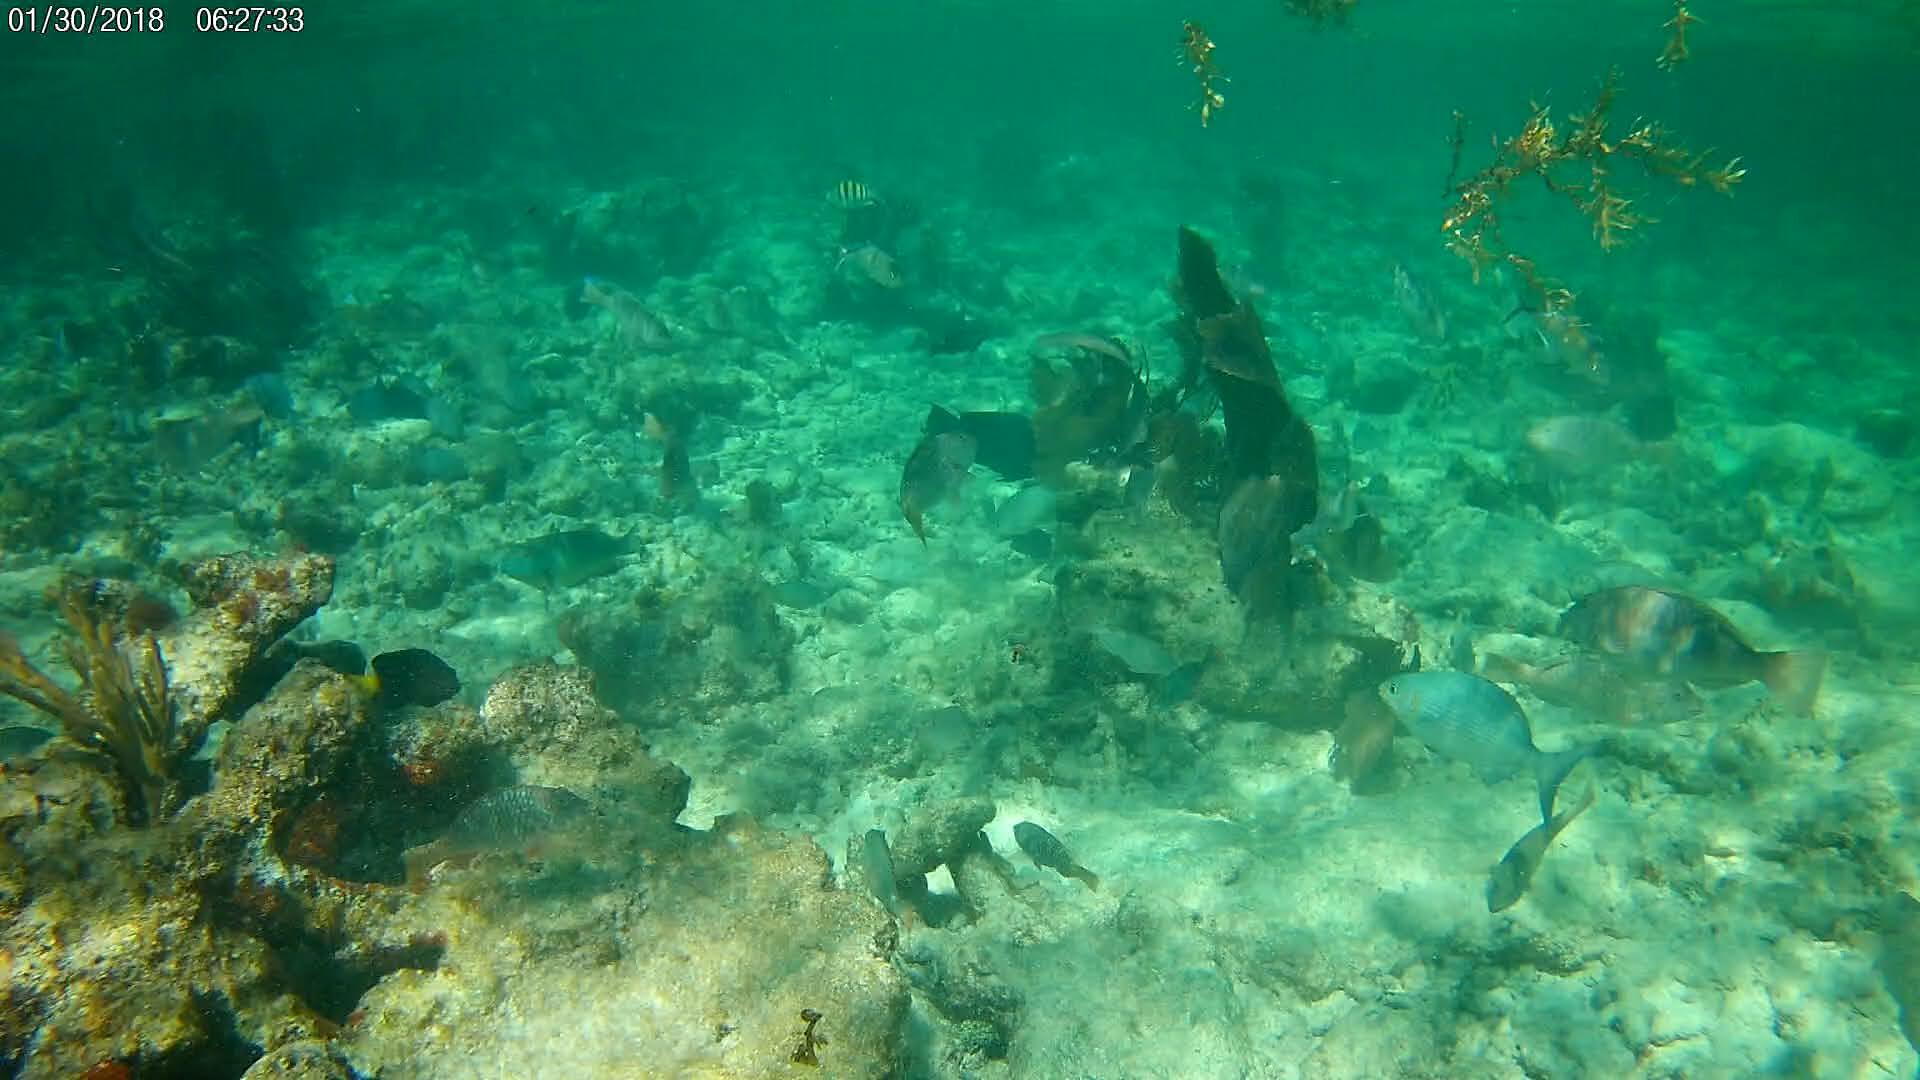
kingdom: Animalia
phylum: Chordata
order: Perciformes
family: Pomacentridae
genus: Microspathodon
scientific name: Microspathodon chrysurus
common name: Yellowtail damselfish
